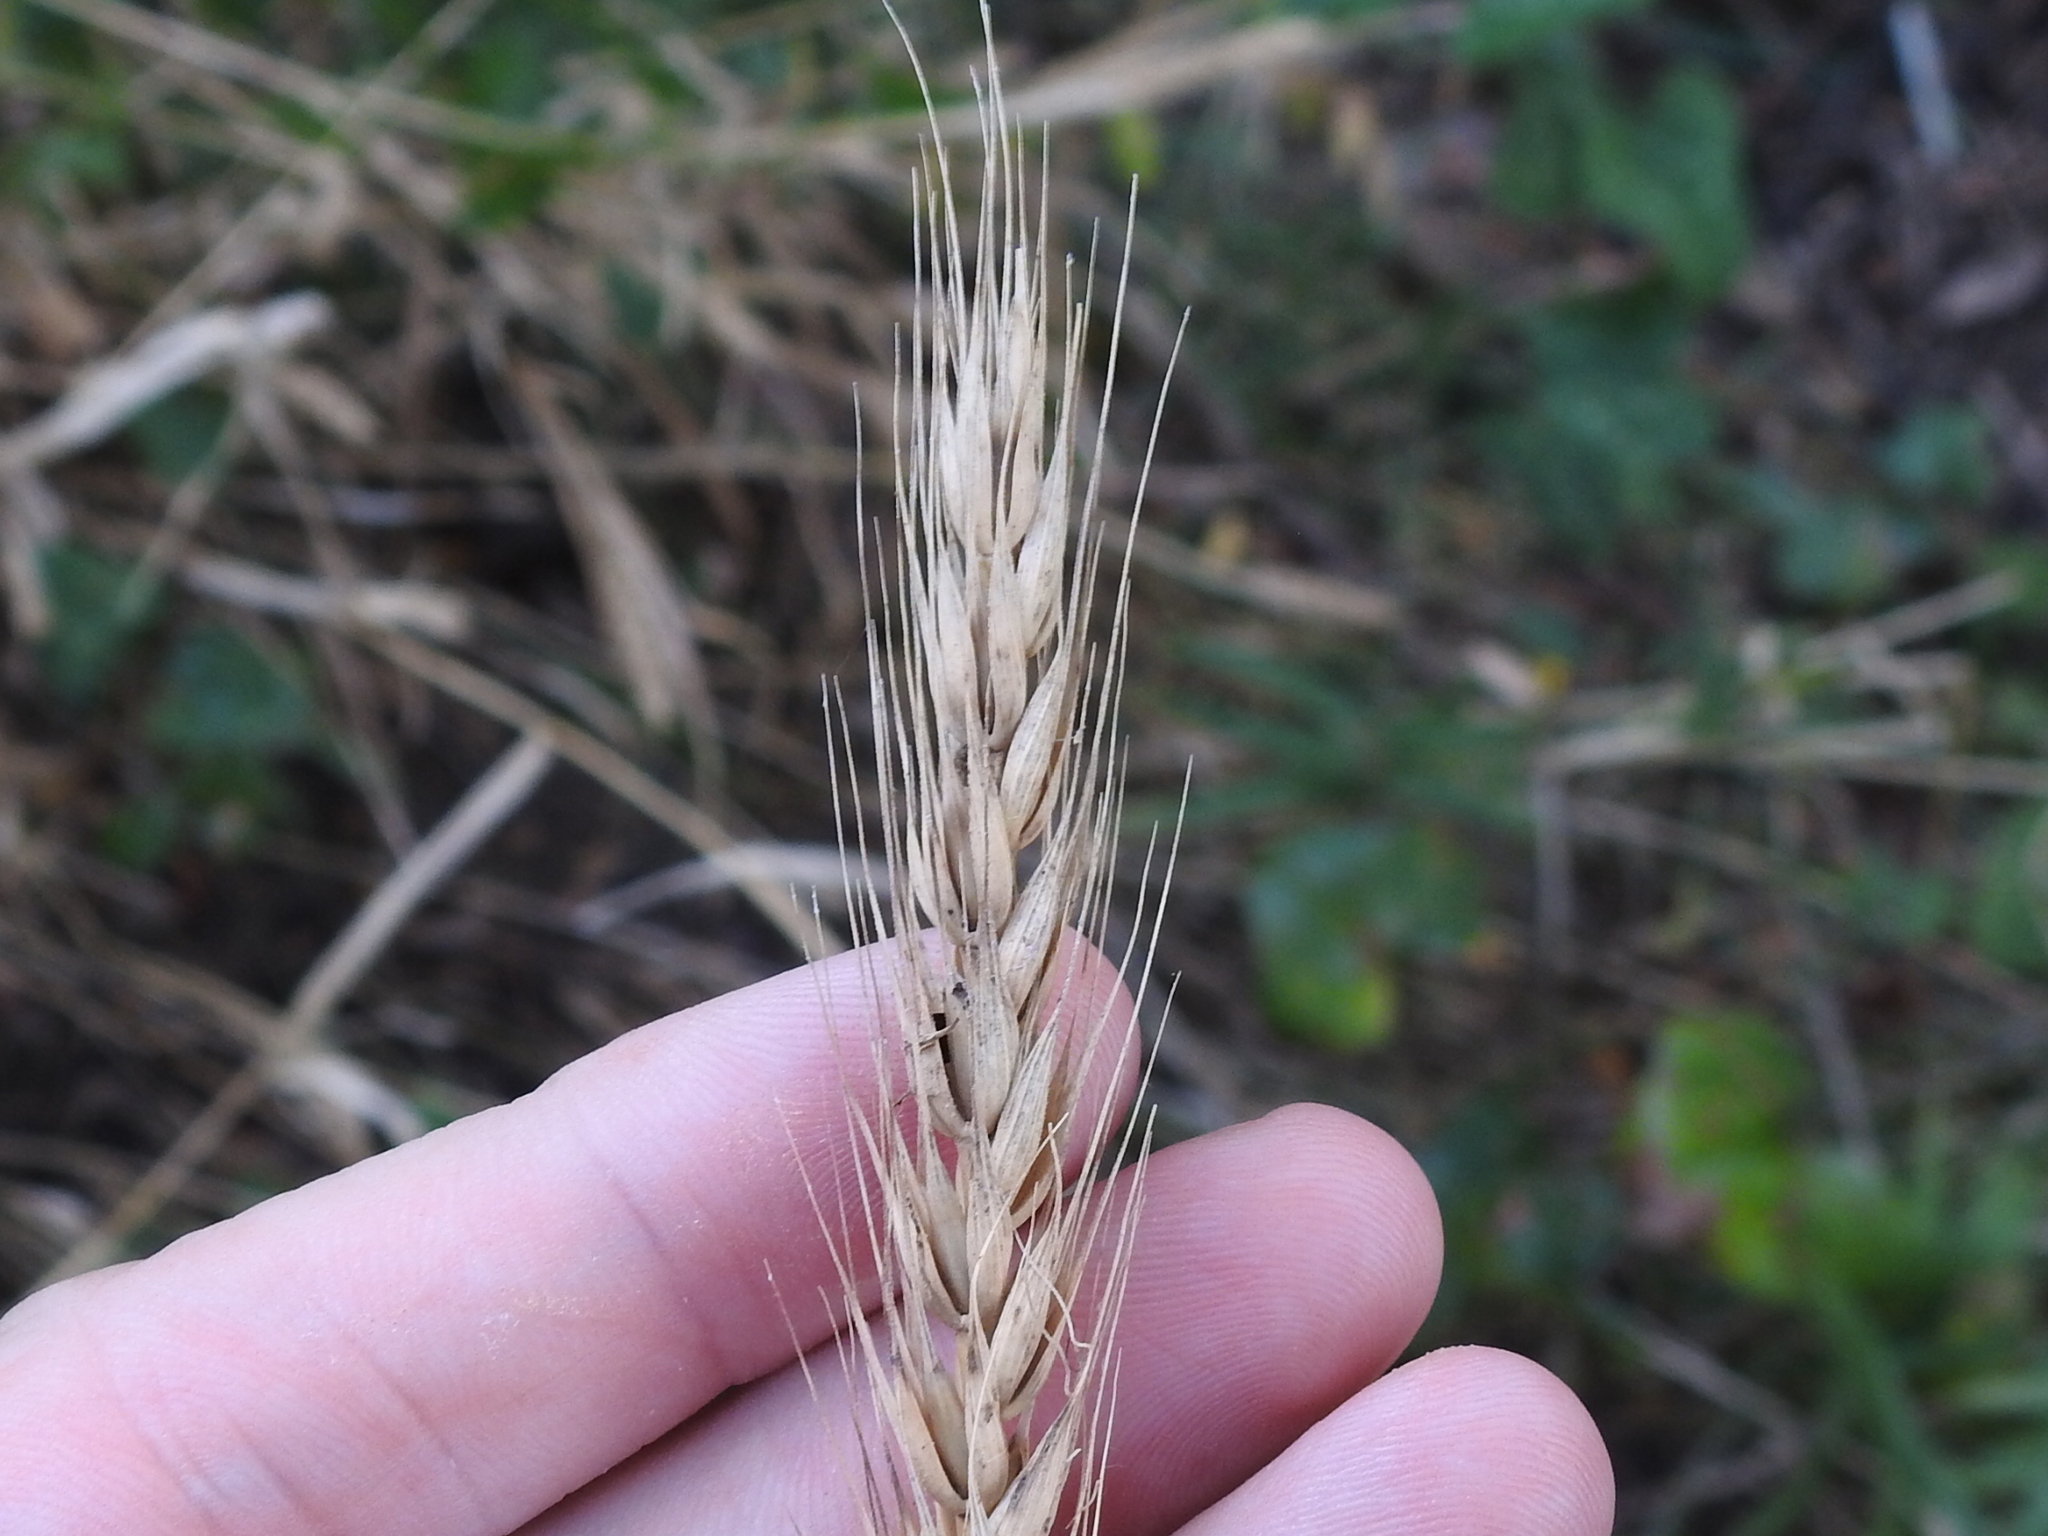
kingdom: Plantae
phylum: Tracheophyta
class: Liliopsida
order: Poales
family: Poaceae
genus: Elymus
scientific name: Elymus virginicus
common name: Common eastern wildrye
